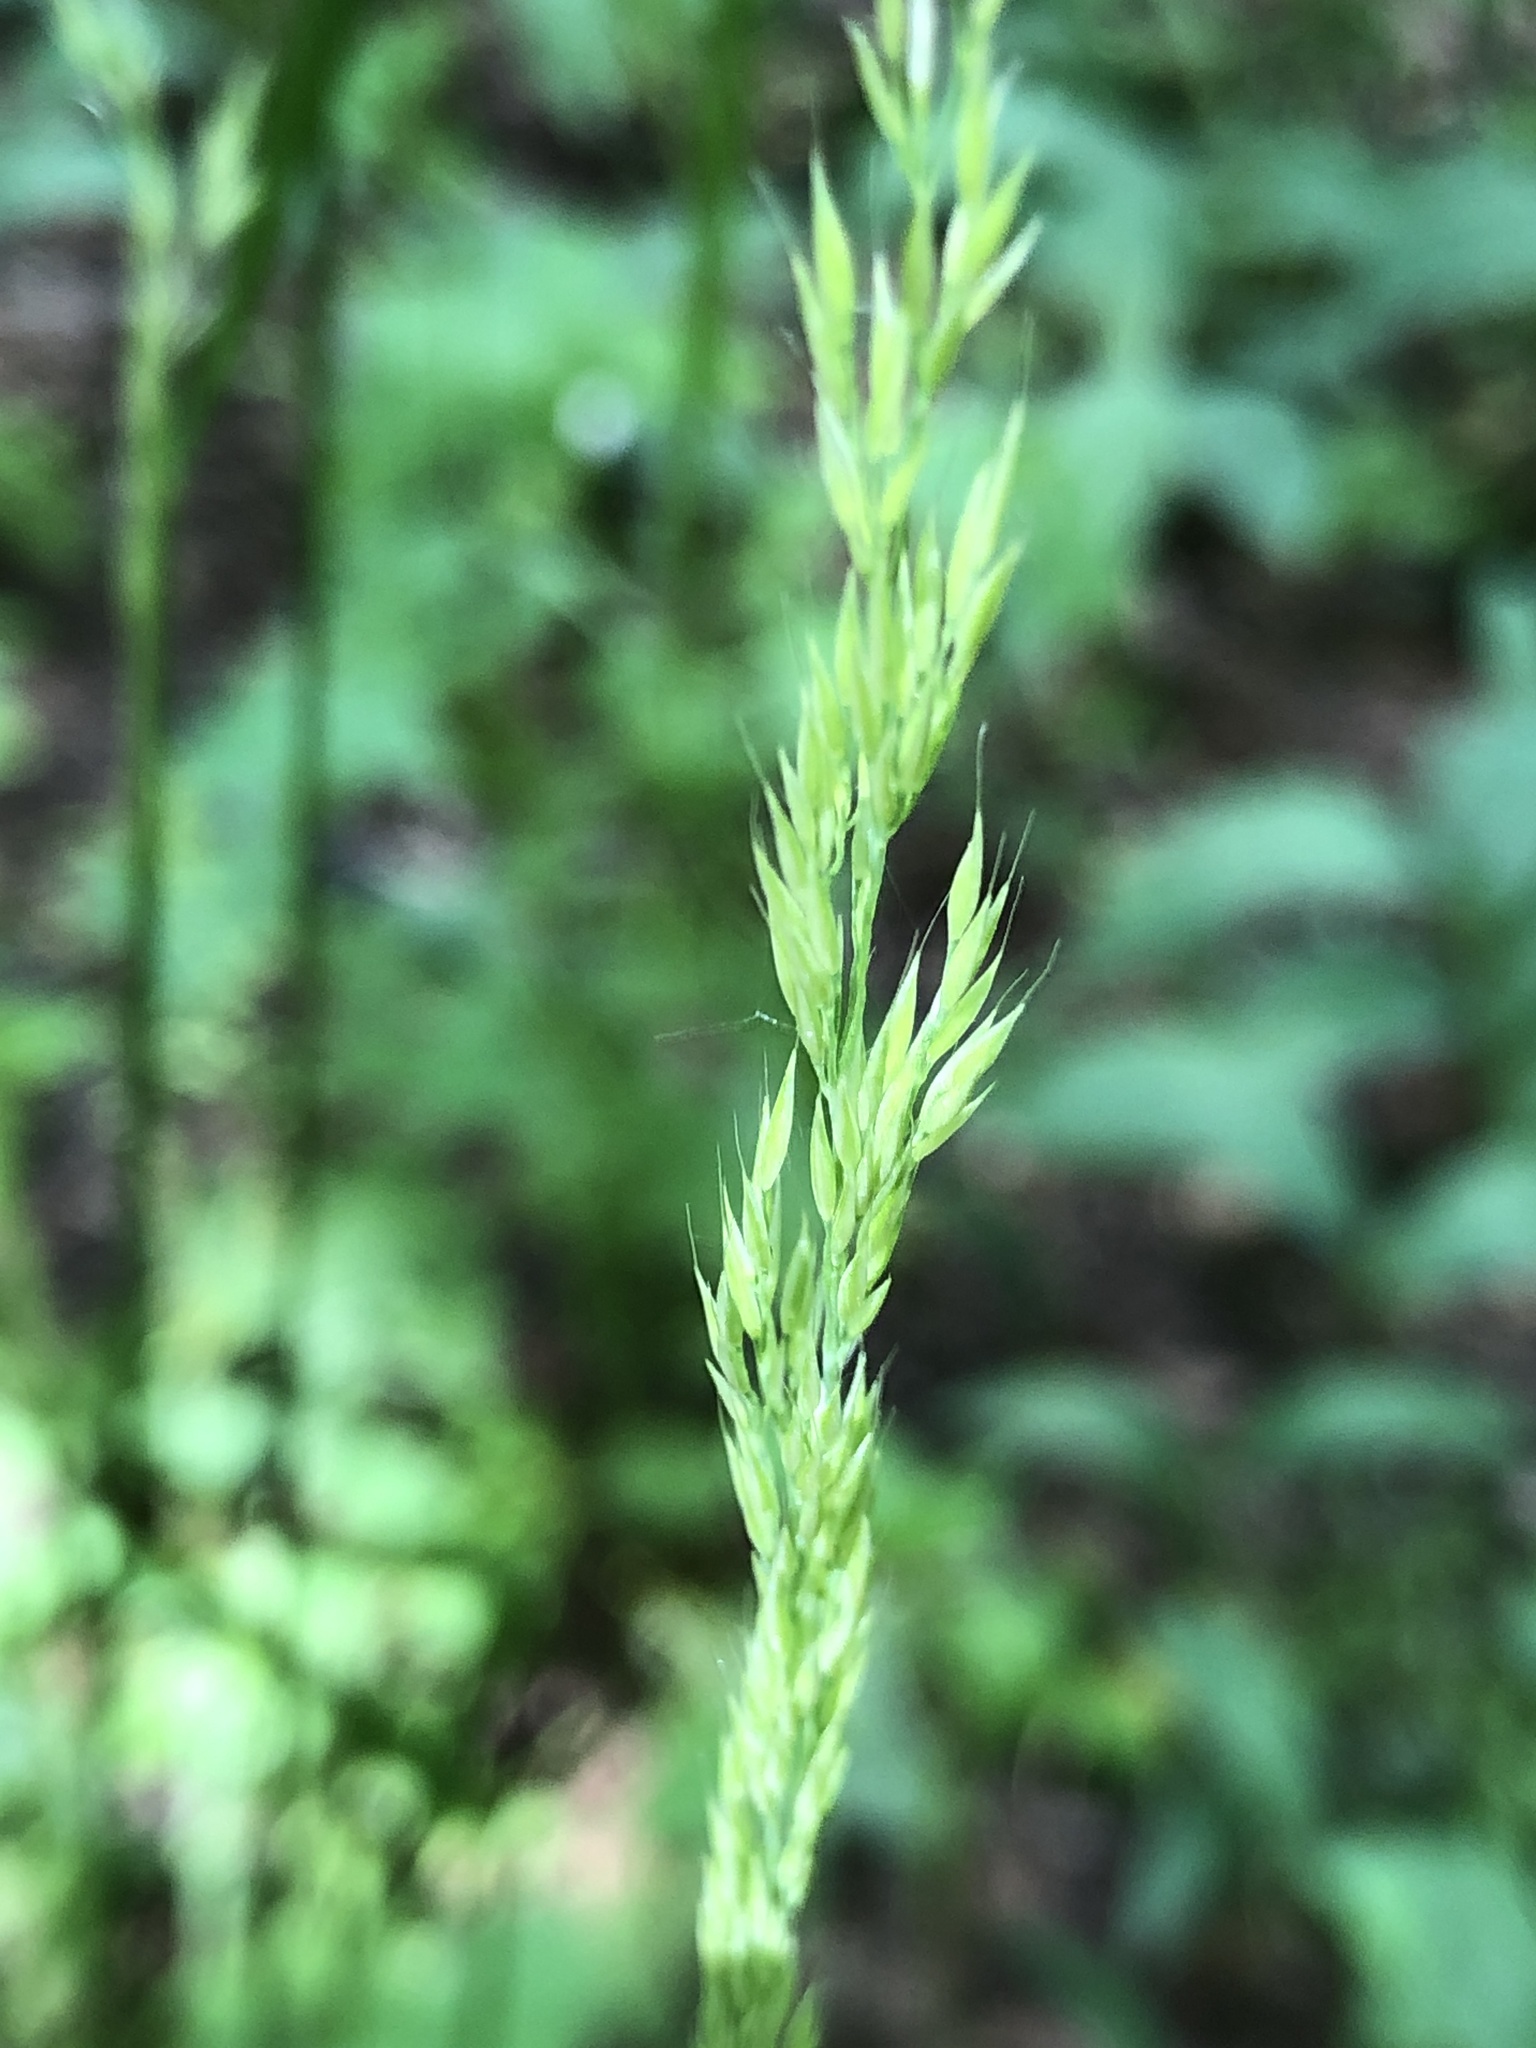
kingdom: Plantae
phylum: Tracheophyta
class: Liliopsida
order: Poales
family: Poaceae
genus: Calamagrostis
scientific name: Calamagrostis arundinacea
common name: Metskastik
